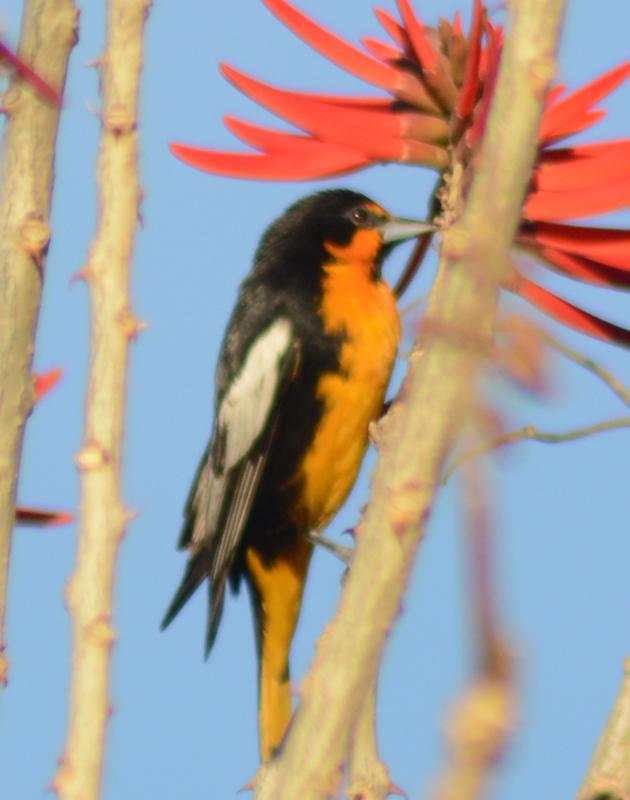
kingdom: Animalia
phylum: Chordata
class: Aves
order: Passeriformes
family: Icteridae
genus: Icterus
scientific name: Icterus abeillei
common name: Black-backed oriole
